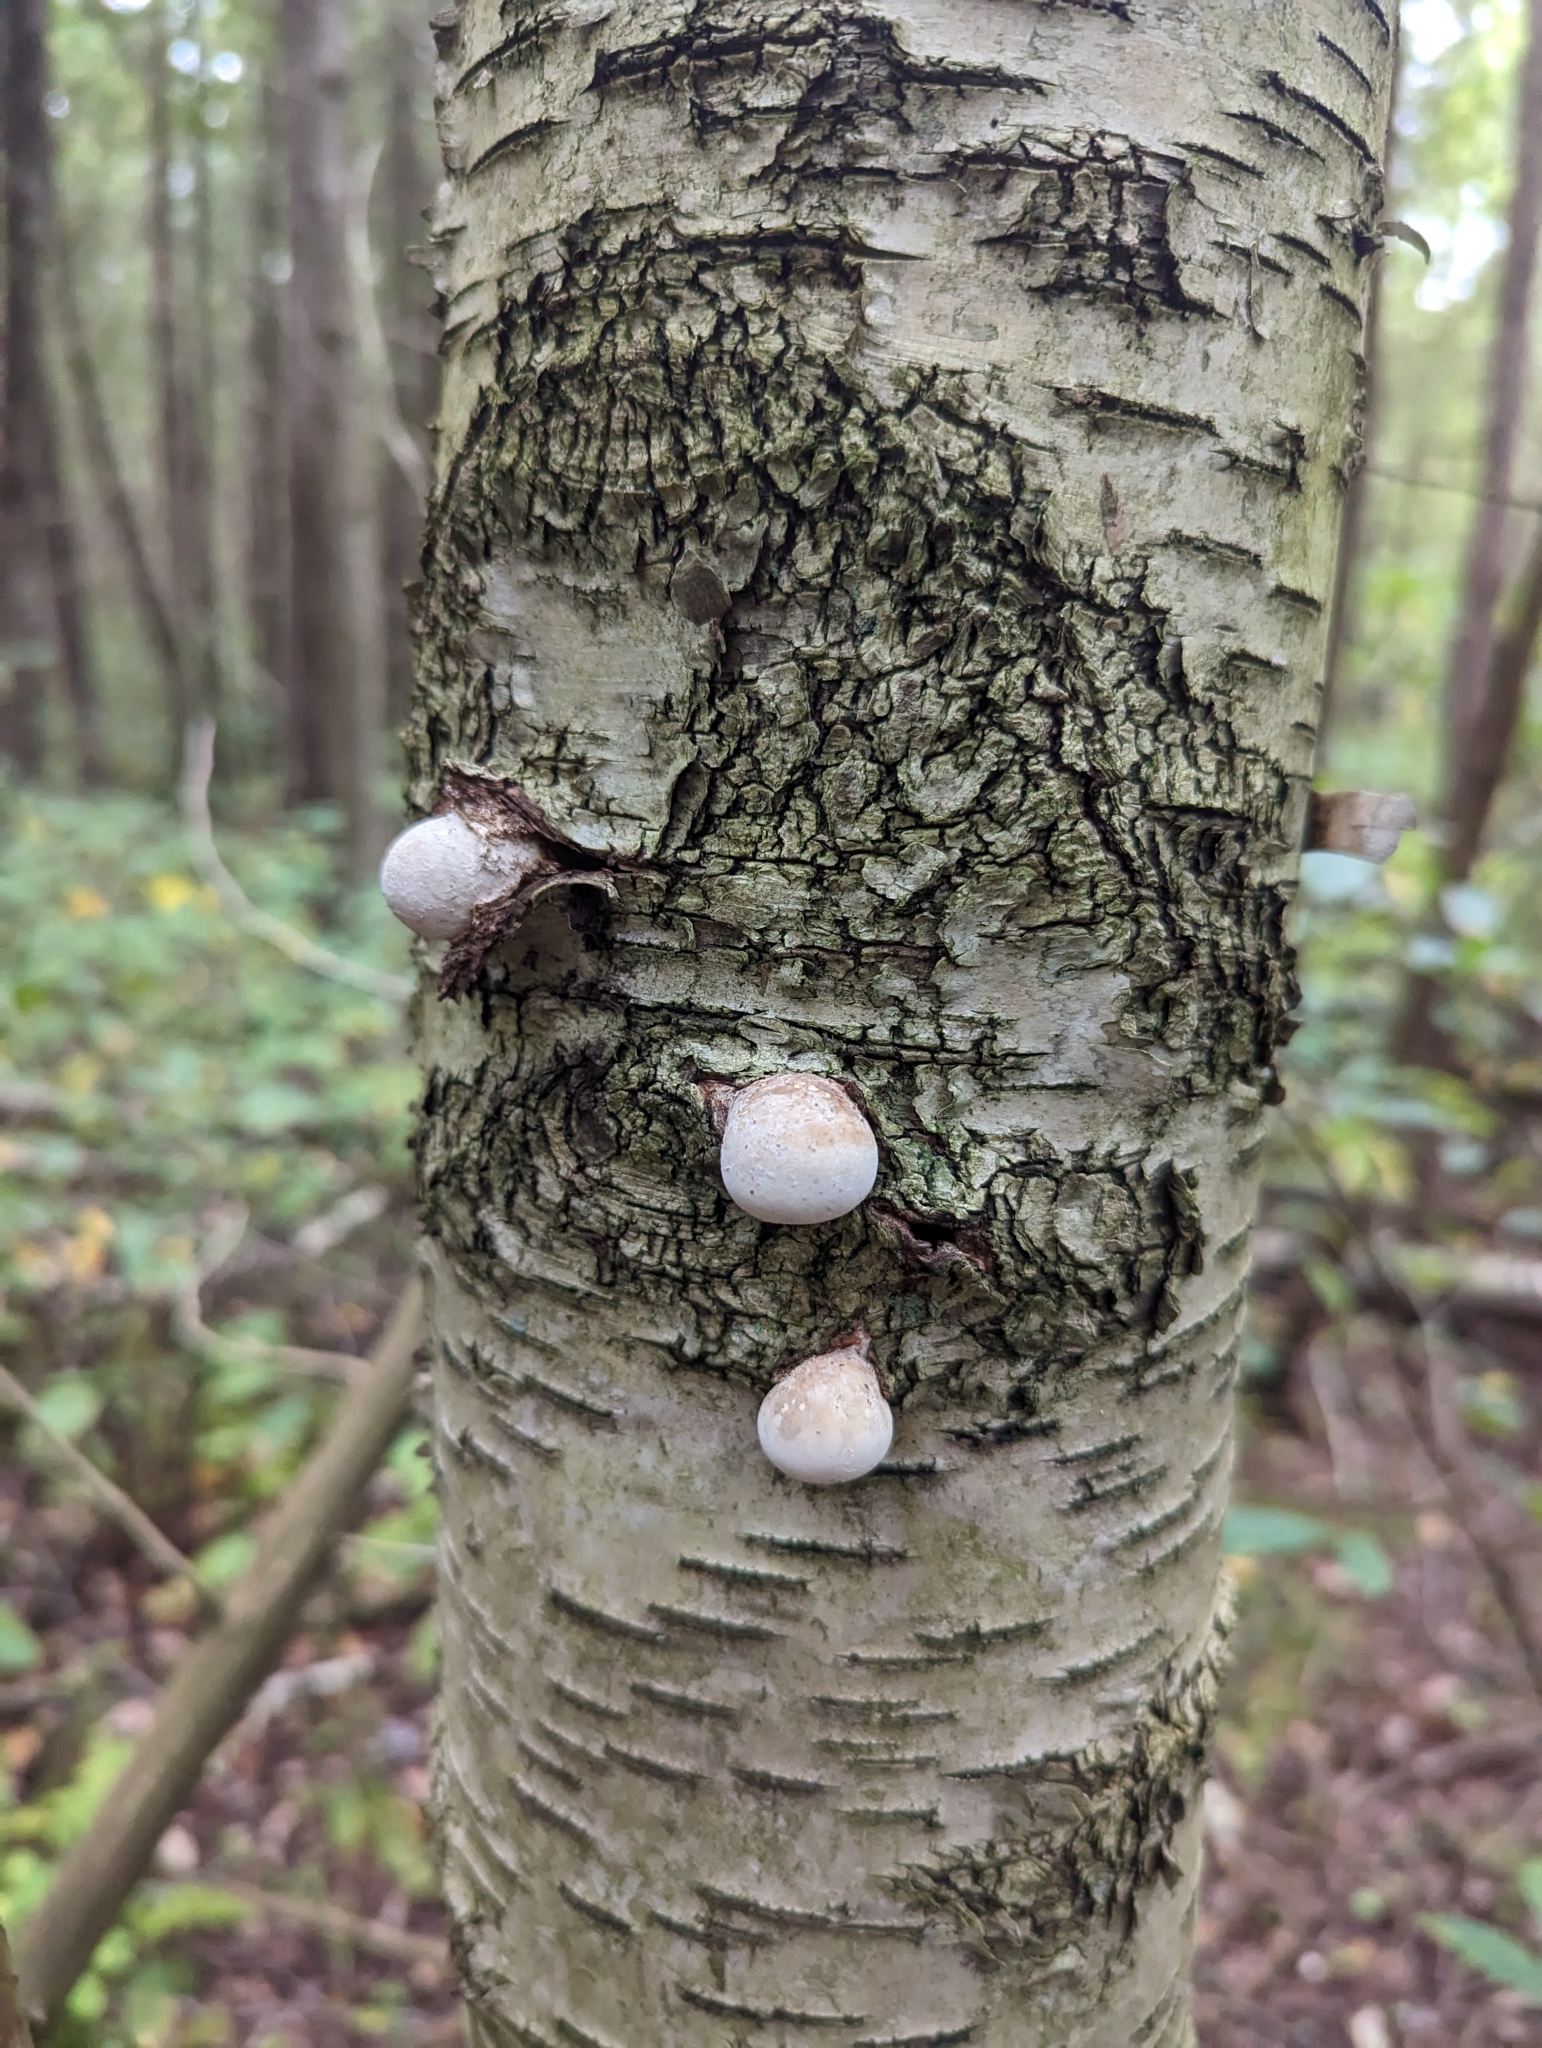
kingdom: Fungi
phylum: Basidiomycota
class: Agaricomycetes
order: Polyporales
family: Fomitopsidaceae
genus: Fomitopsis
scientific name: Fomitopsis betulina
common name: Birch polypore
